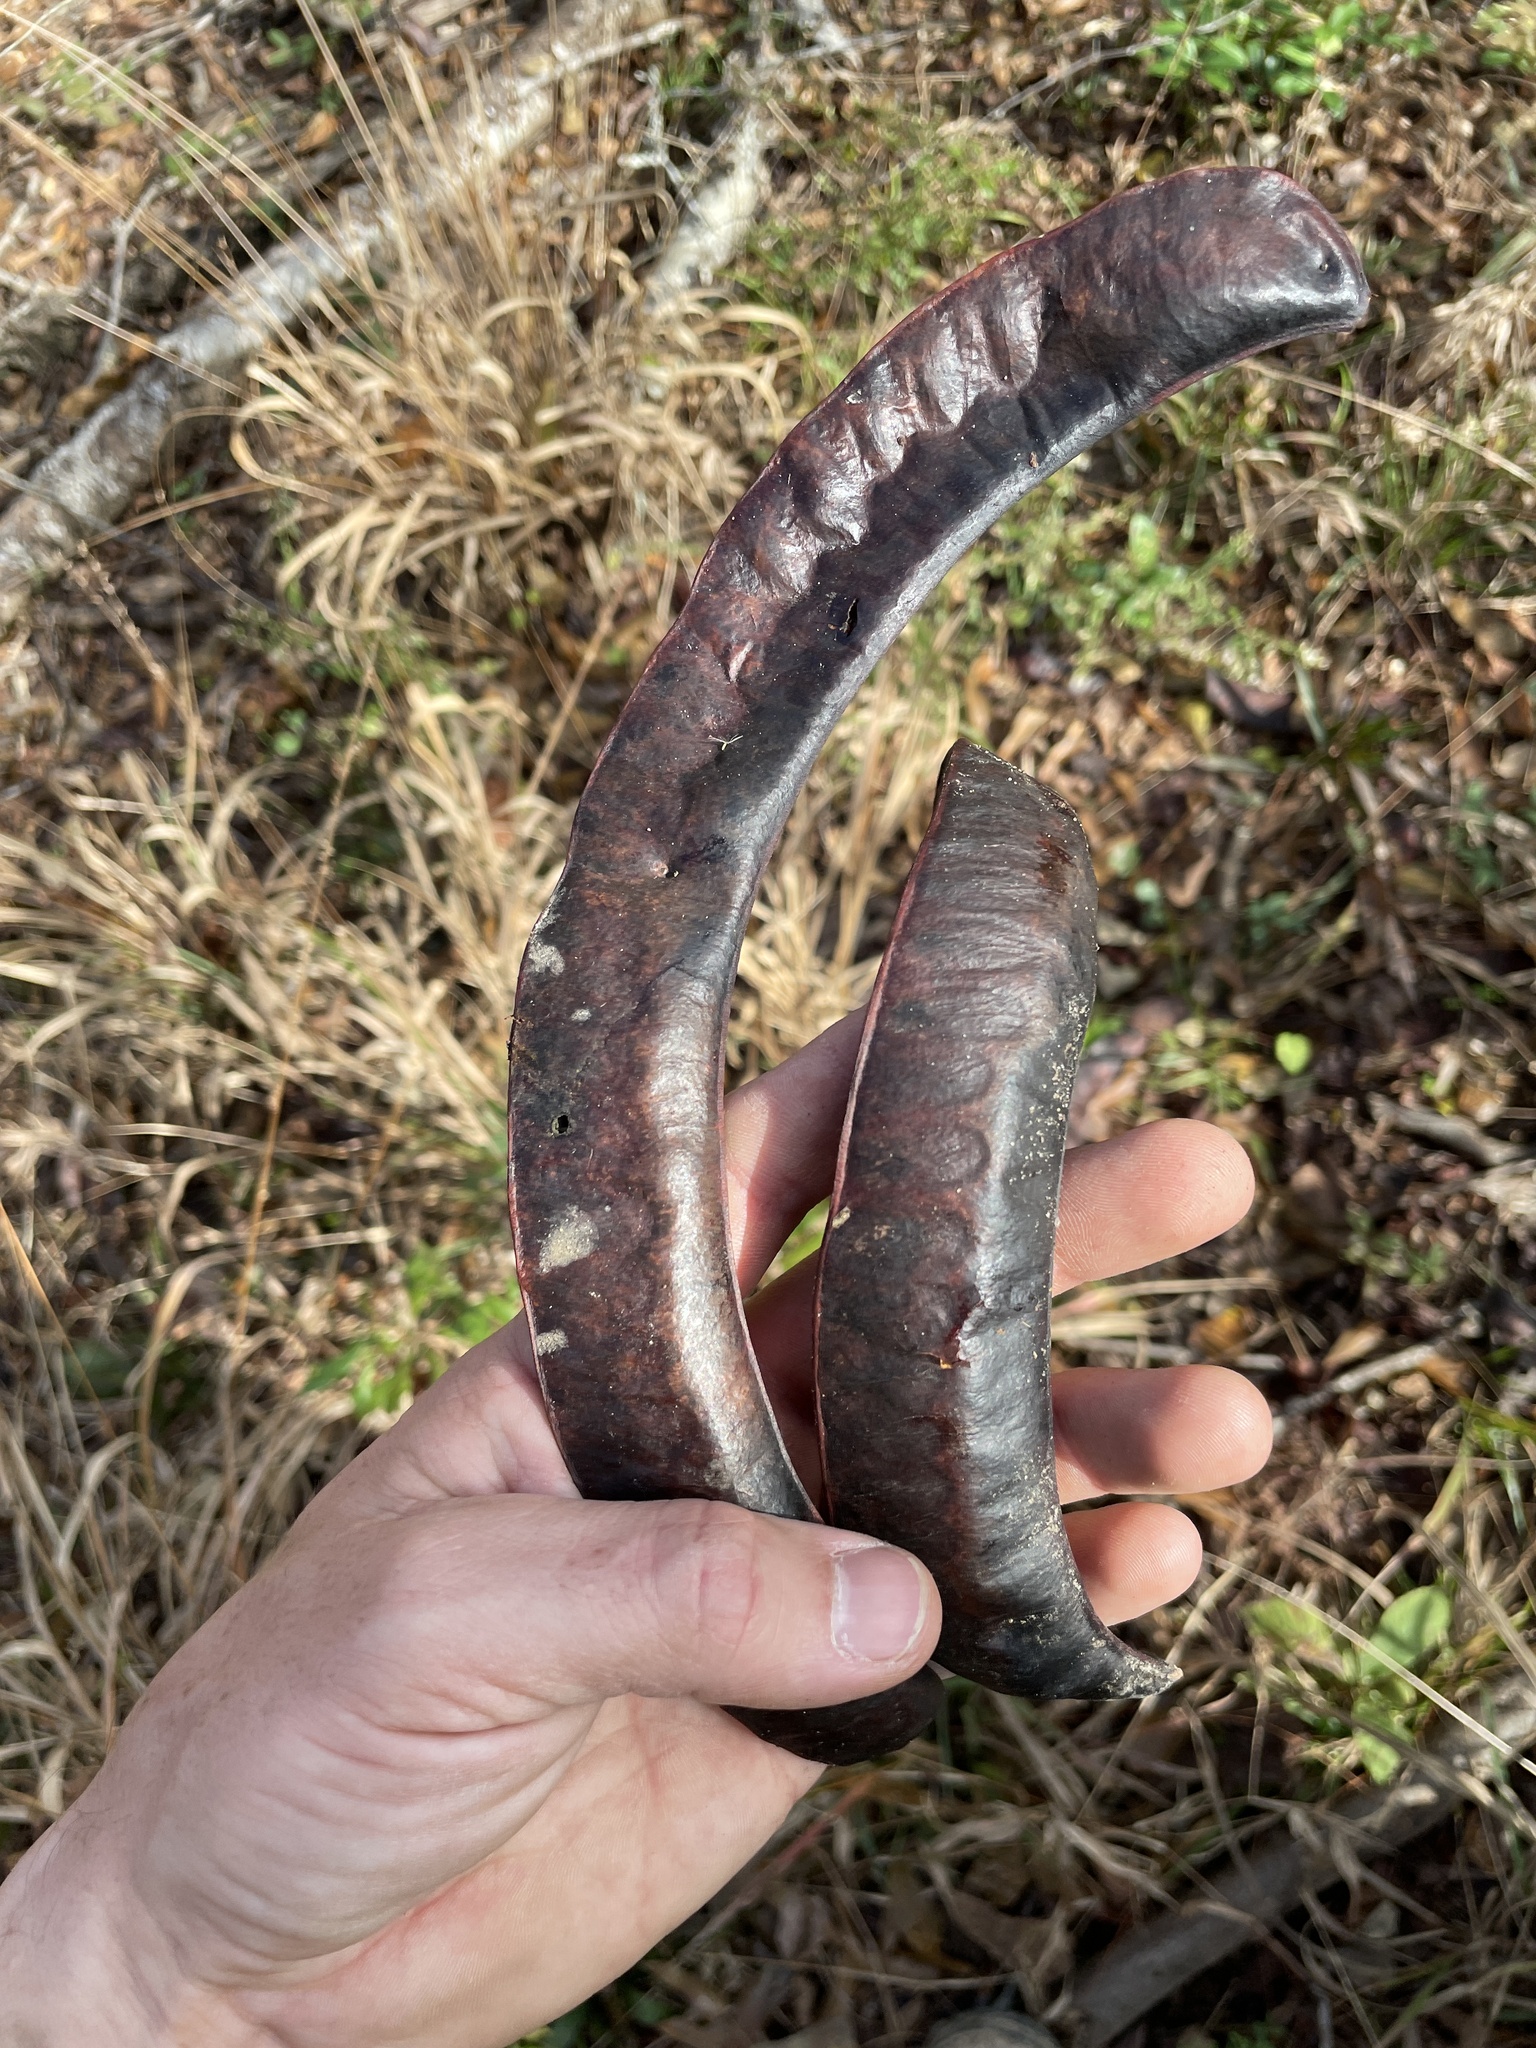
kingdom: Plantae
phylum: Tracheophyta
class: Magnoliopsida
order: Fabales
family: Fabaceae
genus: Gleditsia
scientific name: Gleditsia triacanthos
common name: Common honeylocust
